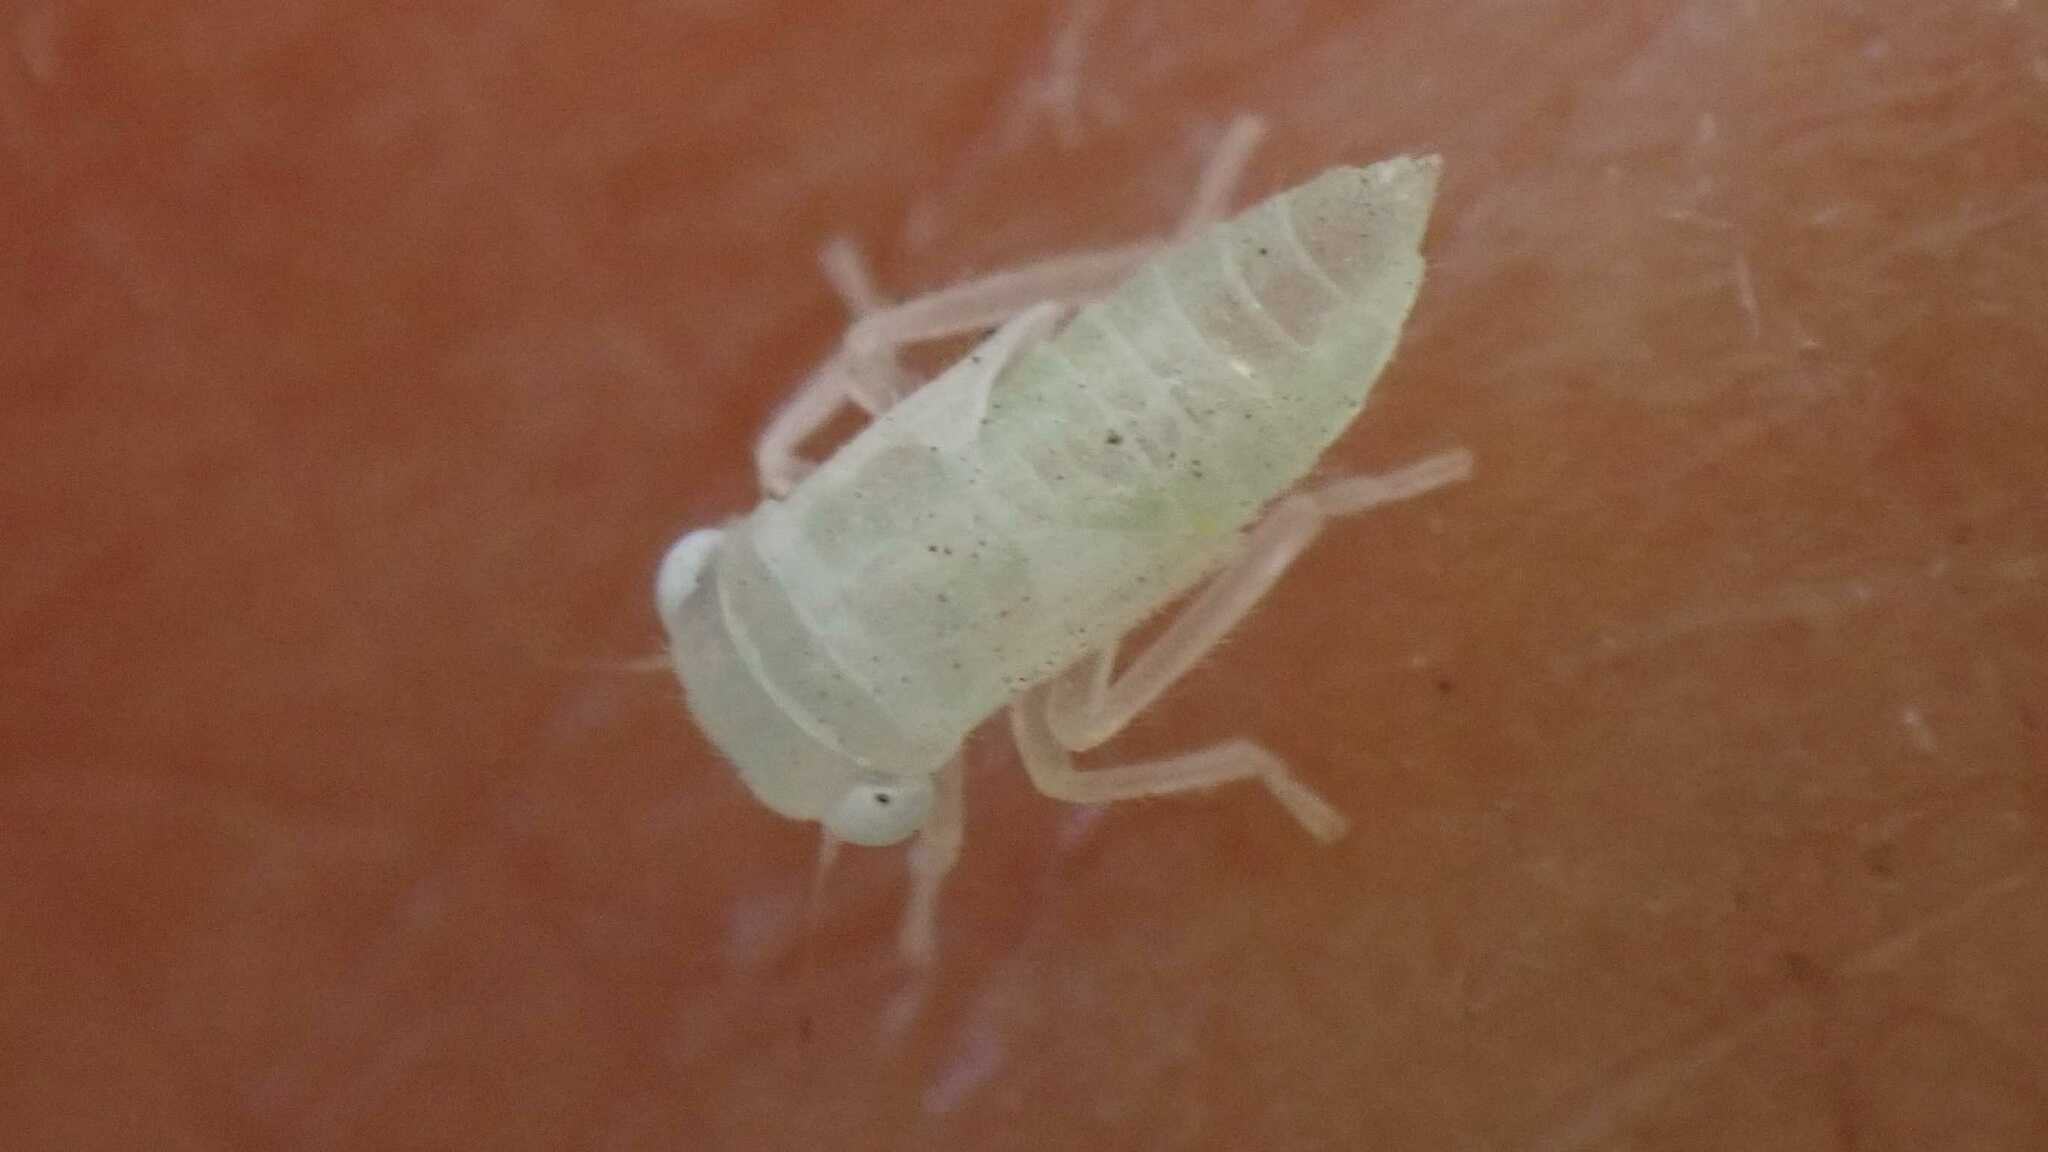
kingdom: Animalia
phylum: Arthropoda
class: Insecta
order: Hemiptera
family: Cicadellidae
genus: Populicerus
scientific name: Populicerus albicans
